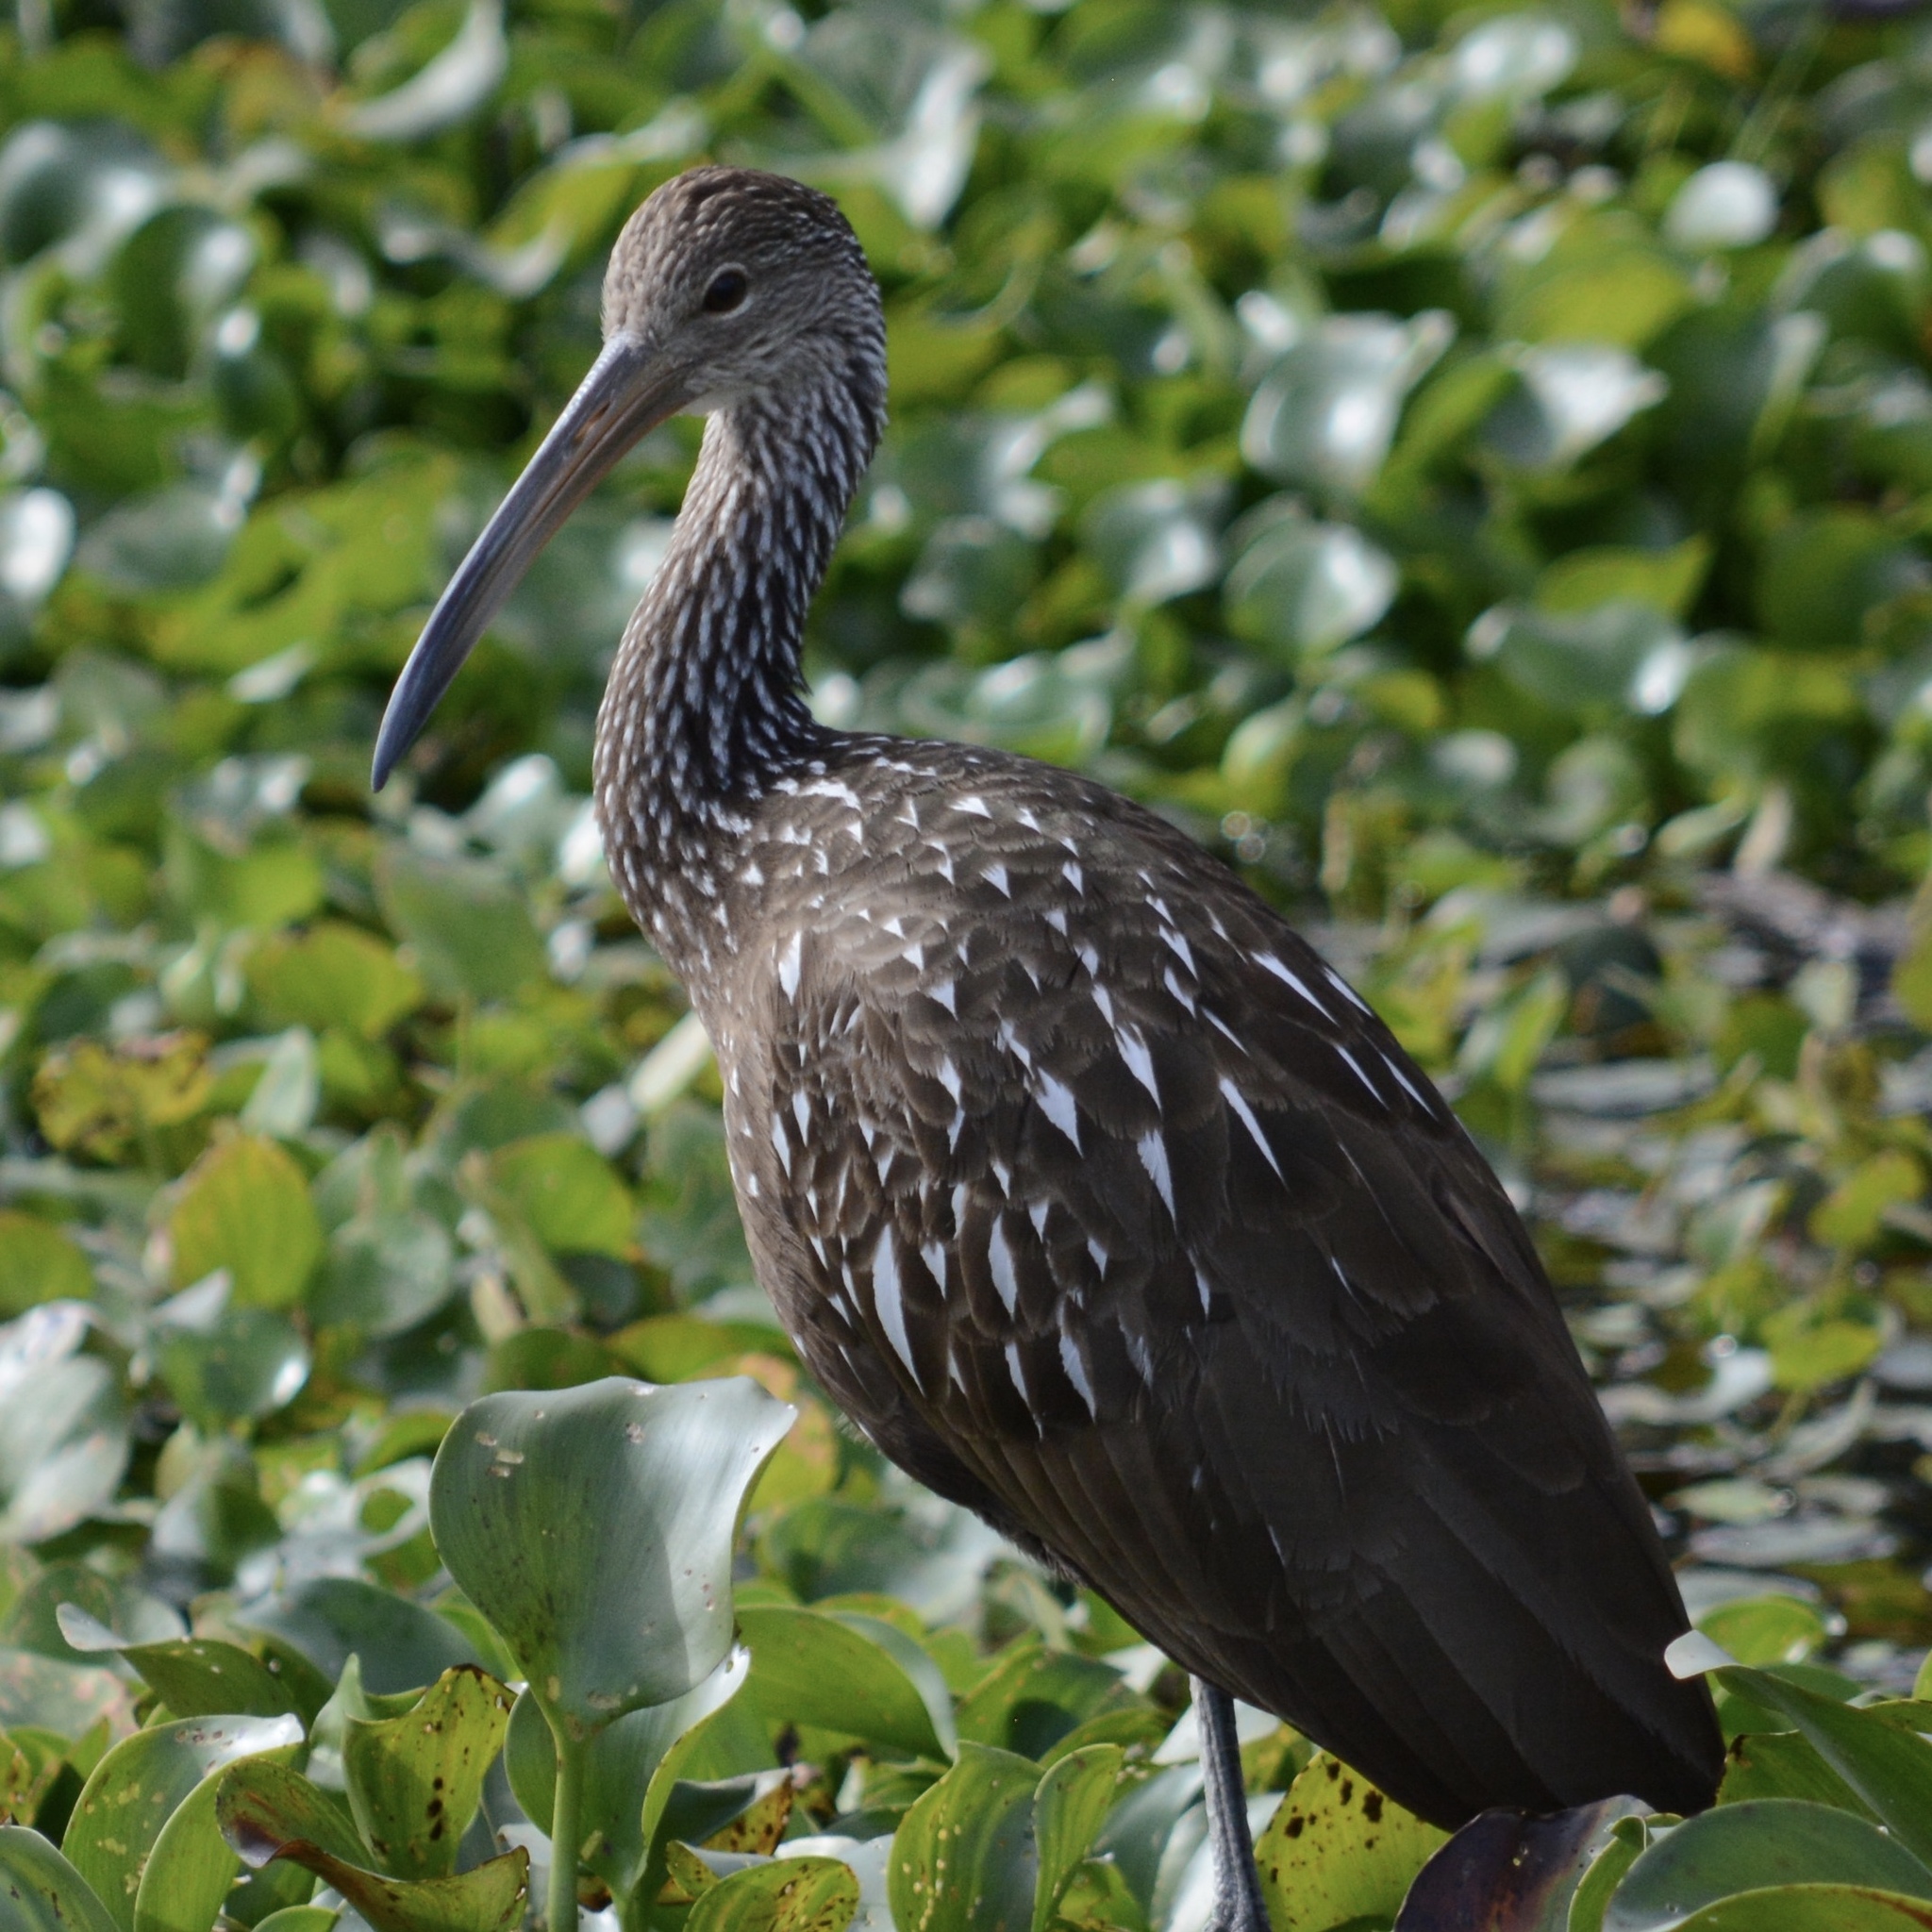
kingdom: Animalia
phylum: Chordata
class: Aves
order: Gruiformes
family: Aramidae
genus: Aramus
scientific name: Aramus guarauna
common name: Limpkin
